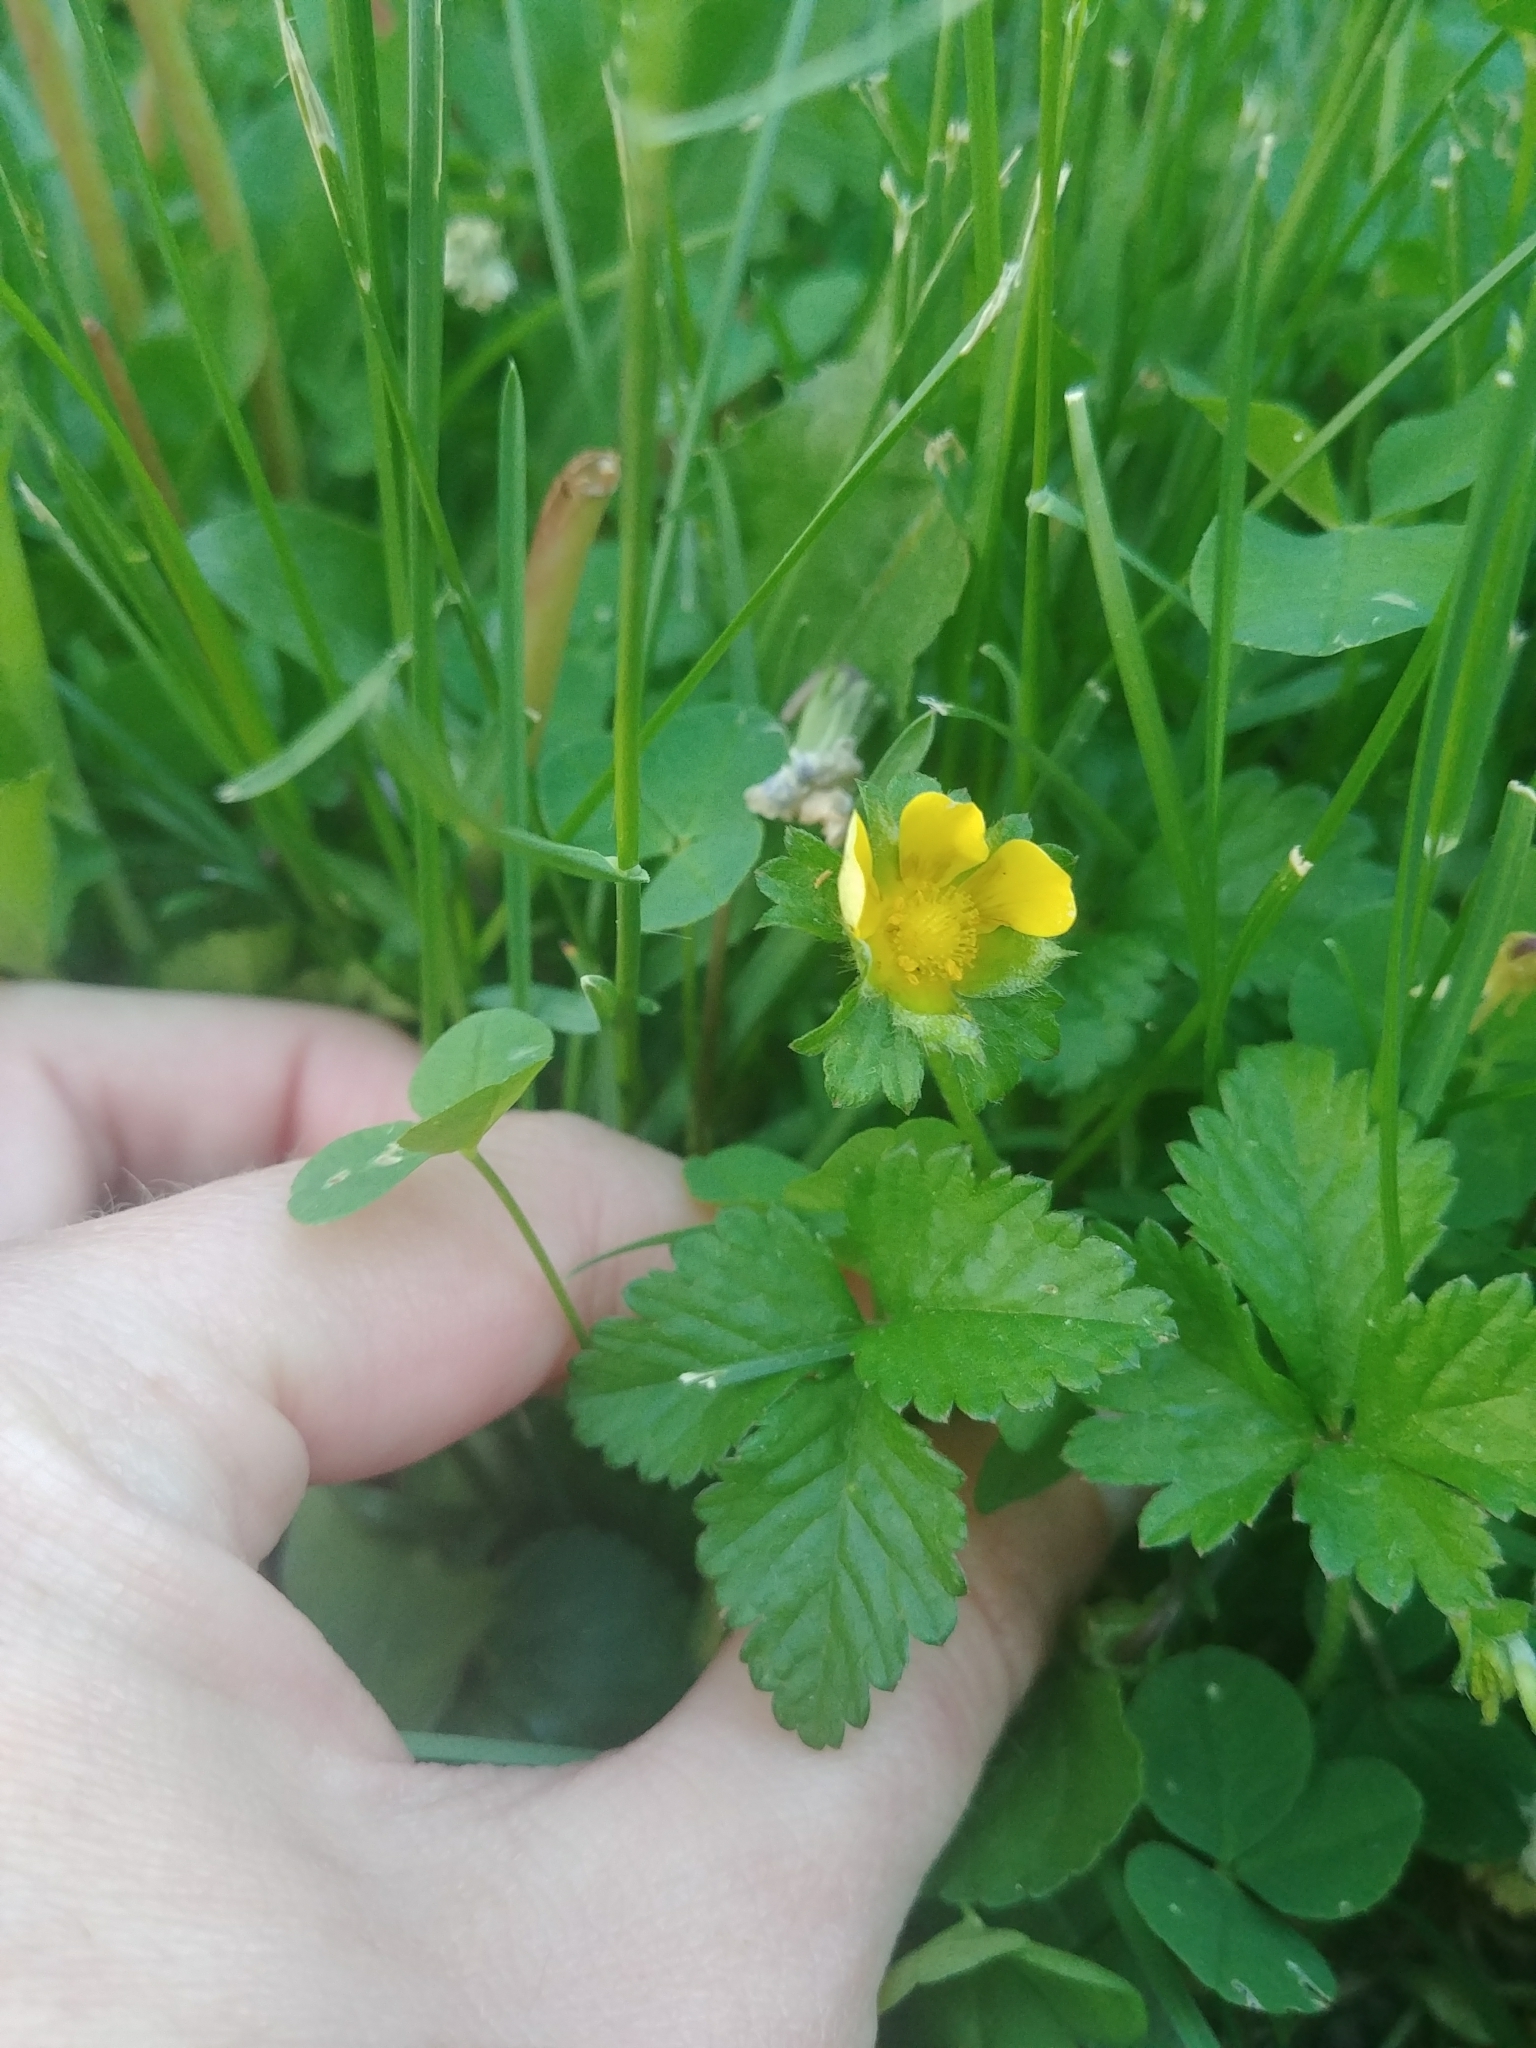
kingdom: Plantae
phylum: Tracheophyta
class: Magnoliopsida
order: Rosales
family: Rosaceae
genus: Potentilla
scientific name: Potentilla indica
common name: Yellow-flowered strawberry
